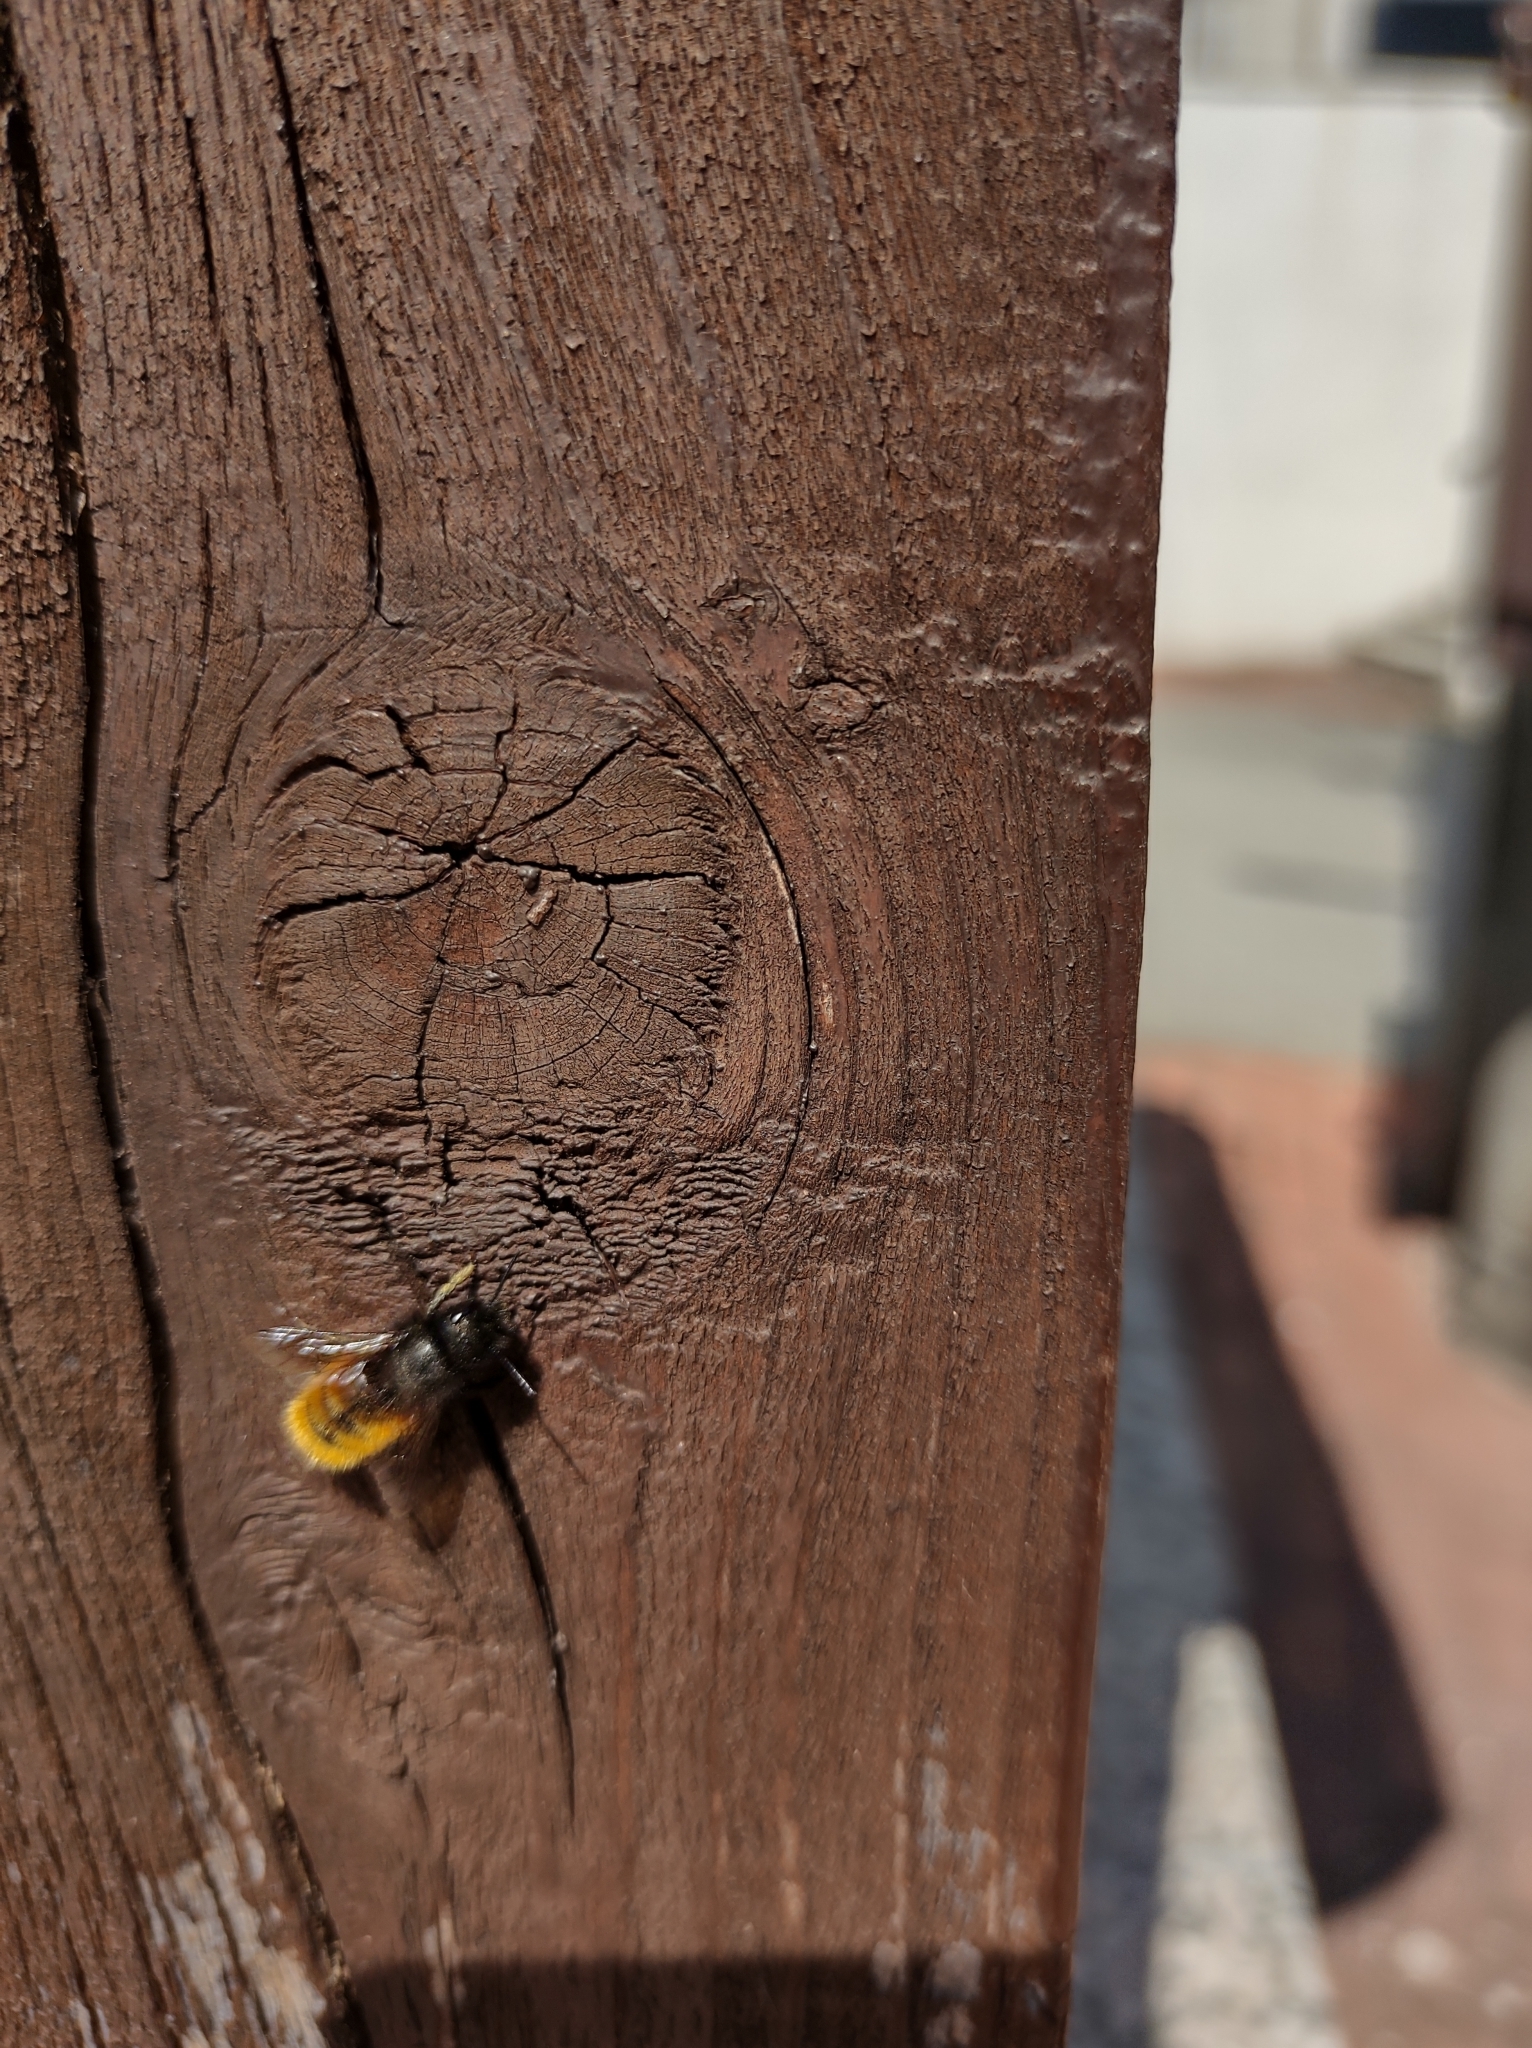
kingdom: Animalia
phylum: Arthropoda
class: Insecta
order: Hymenoptera
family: Megachilidae
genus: Osmia
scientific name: Osmia cornuta
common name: Mason bee
